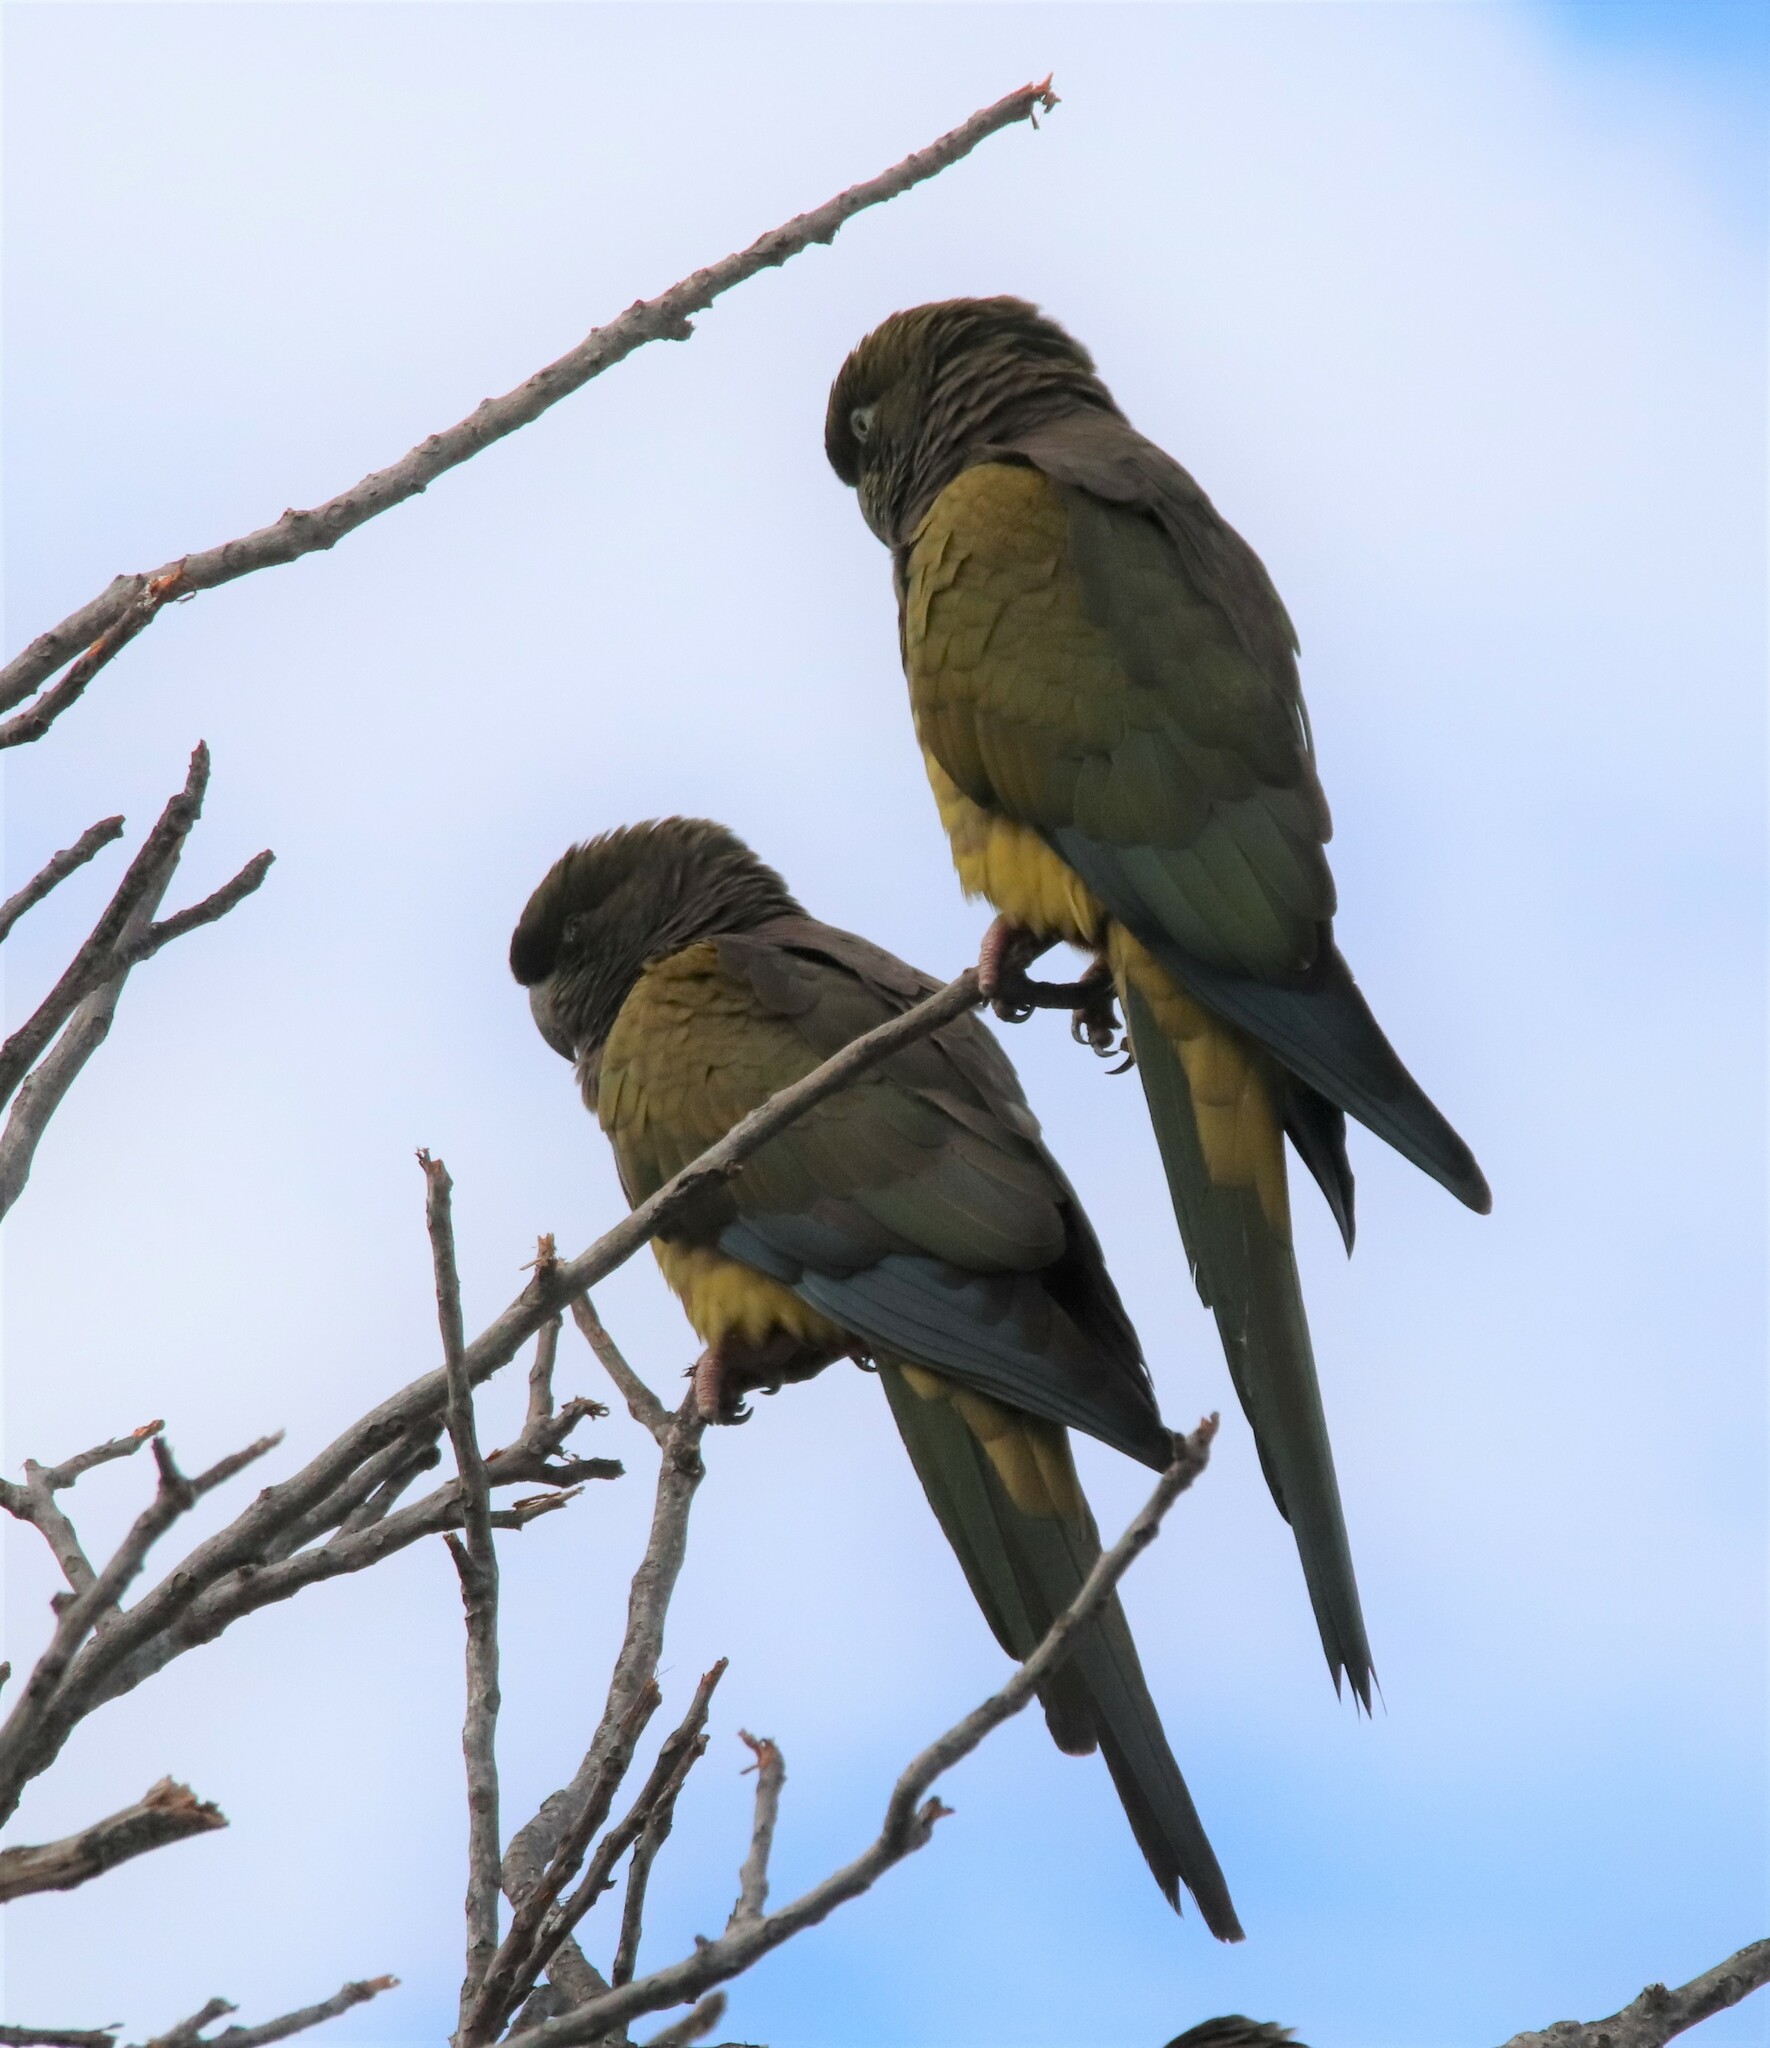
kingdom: Animalia
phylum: Chordata
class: Aves
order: Psittaciformes
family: Psittacidae
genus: Cyanoliseus
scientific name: Cyanoliseus patagonus
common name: Burrowing parrot
